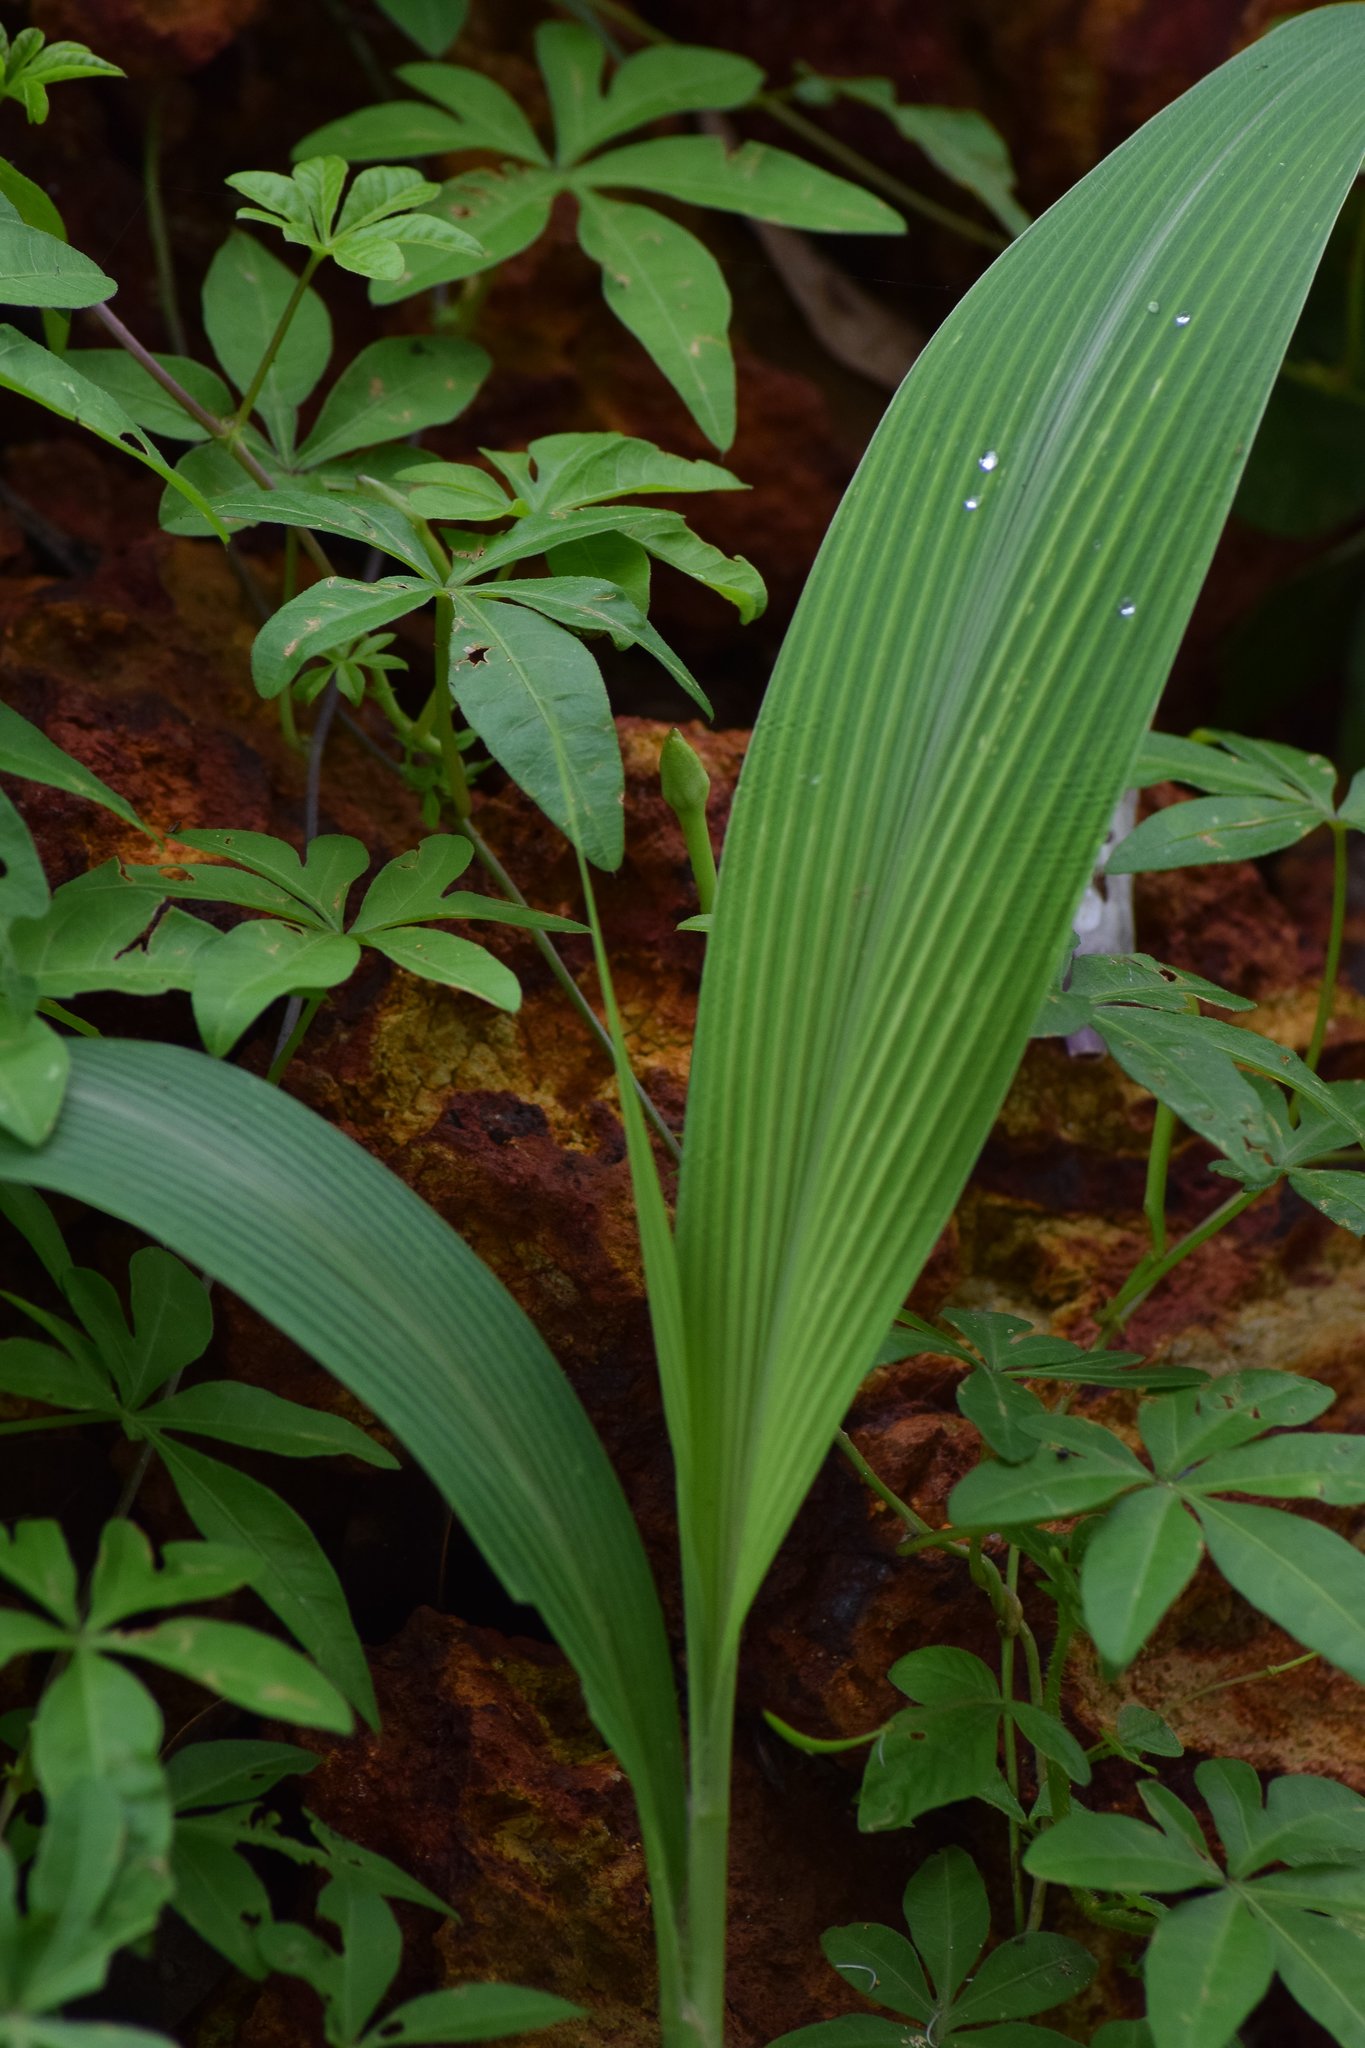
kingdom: Plantae
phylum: Tracheophyta
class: Liliopsida
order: Poales
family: Poaceae
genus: Setaria
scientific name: Setaria palmifolia
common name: Broadleaved bristlegrass
